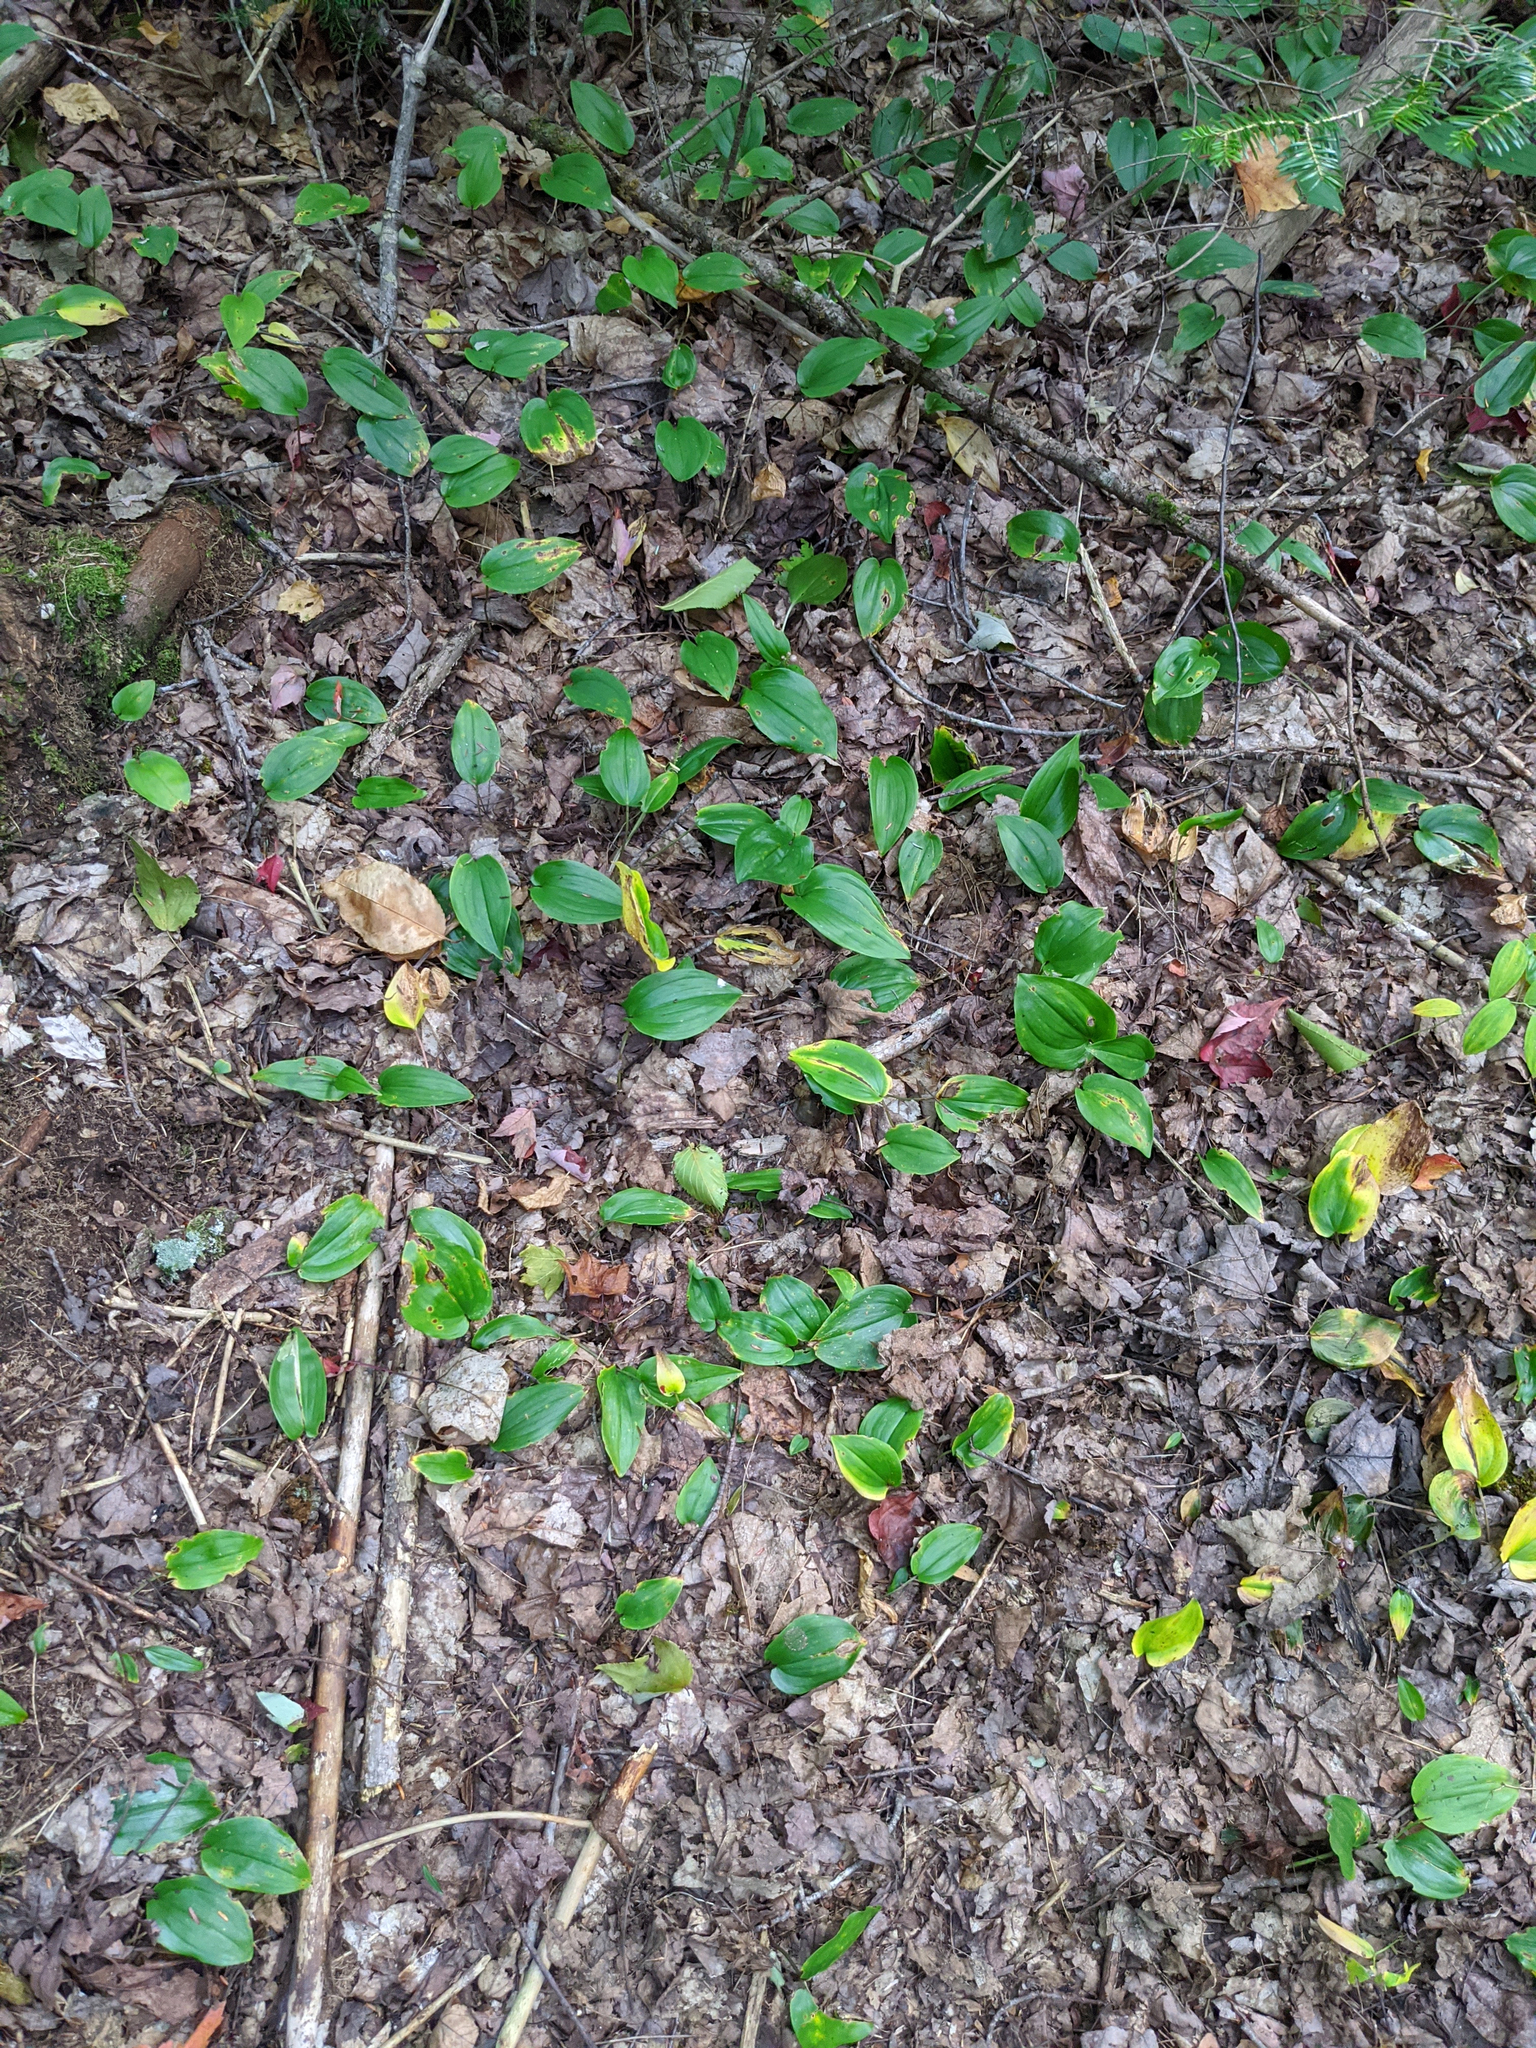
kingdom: Plantae
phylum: Tracheophyta
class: Liliopsida
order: Asparagales
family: Asparagaceae
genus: Maianthemum
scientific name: Maianthemum canadense
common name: False lily-of-the-valley
